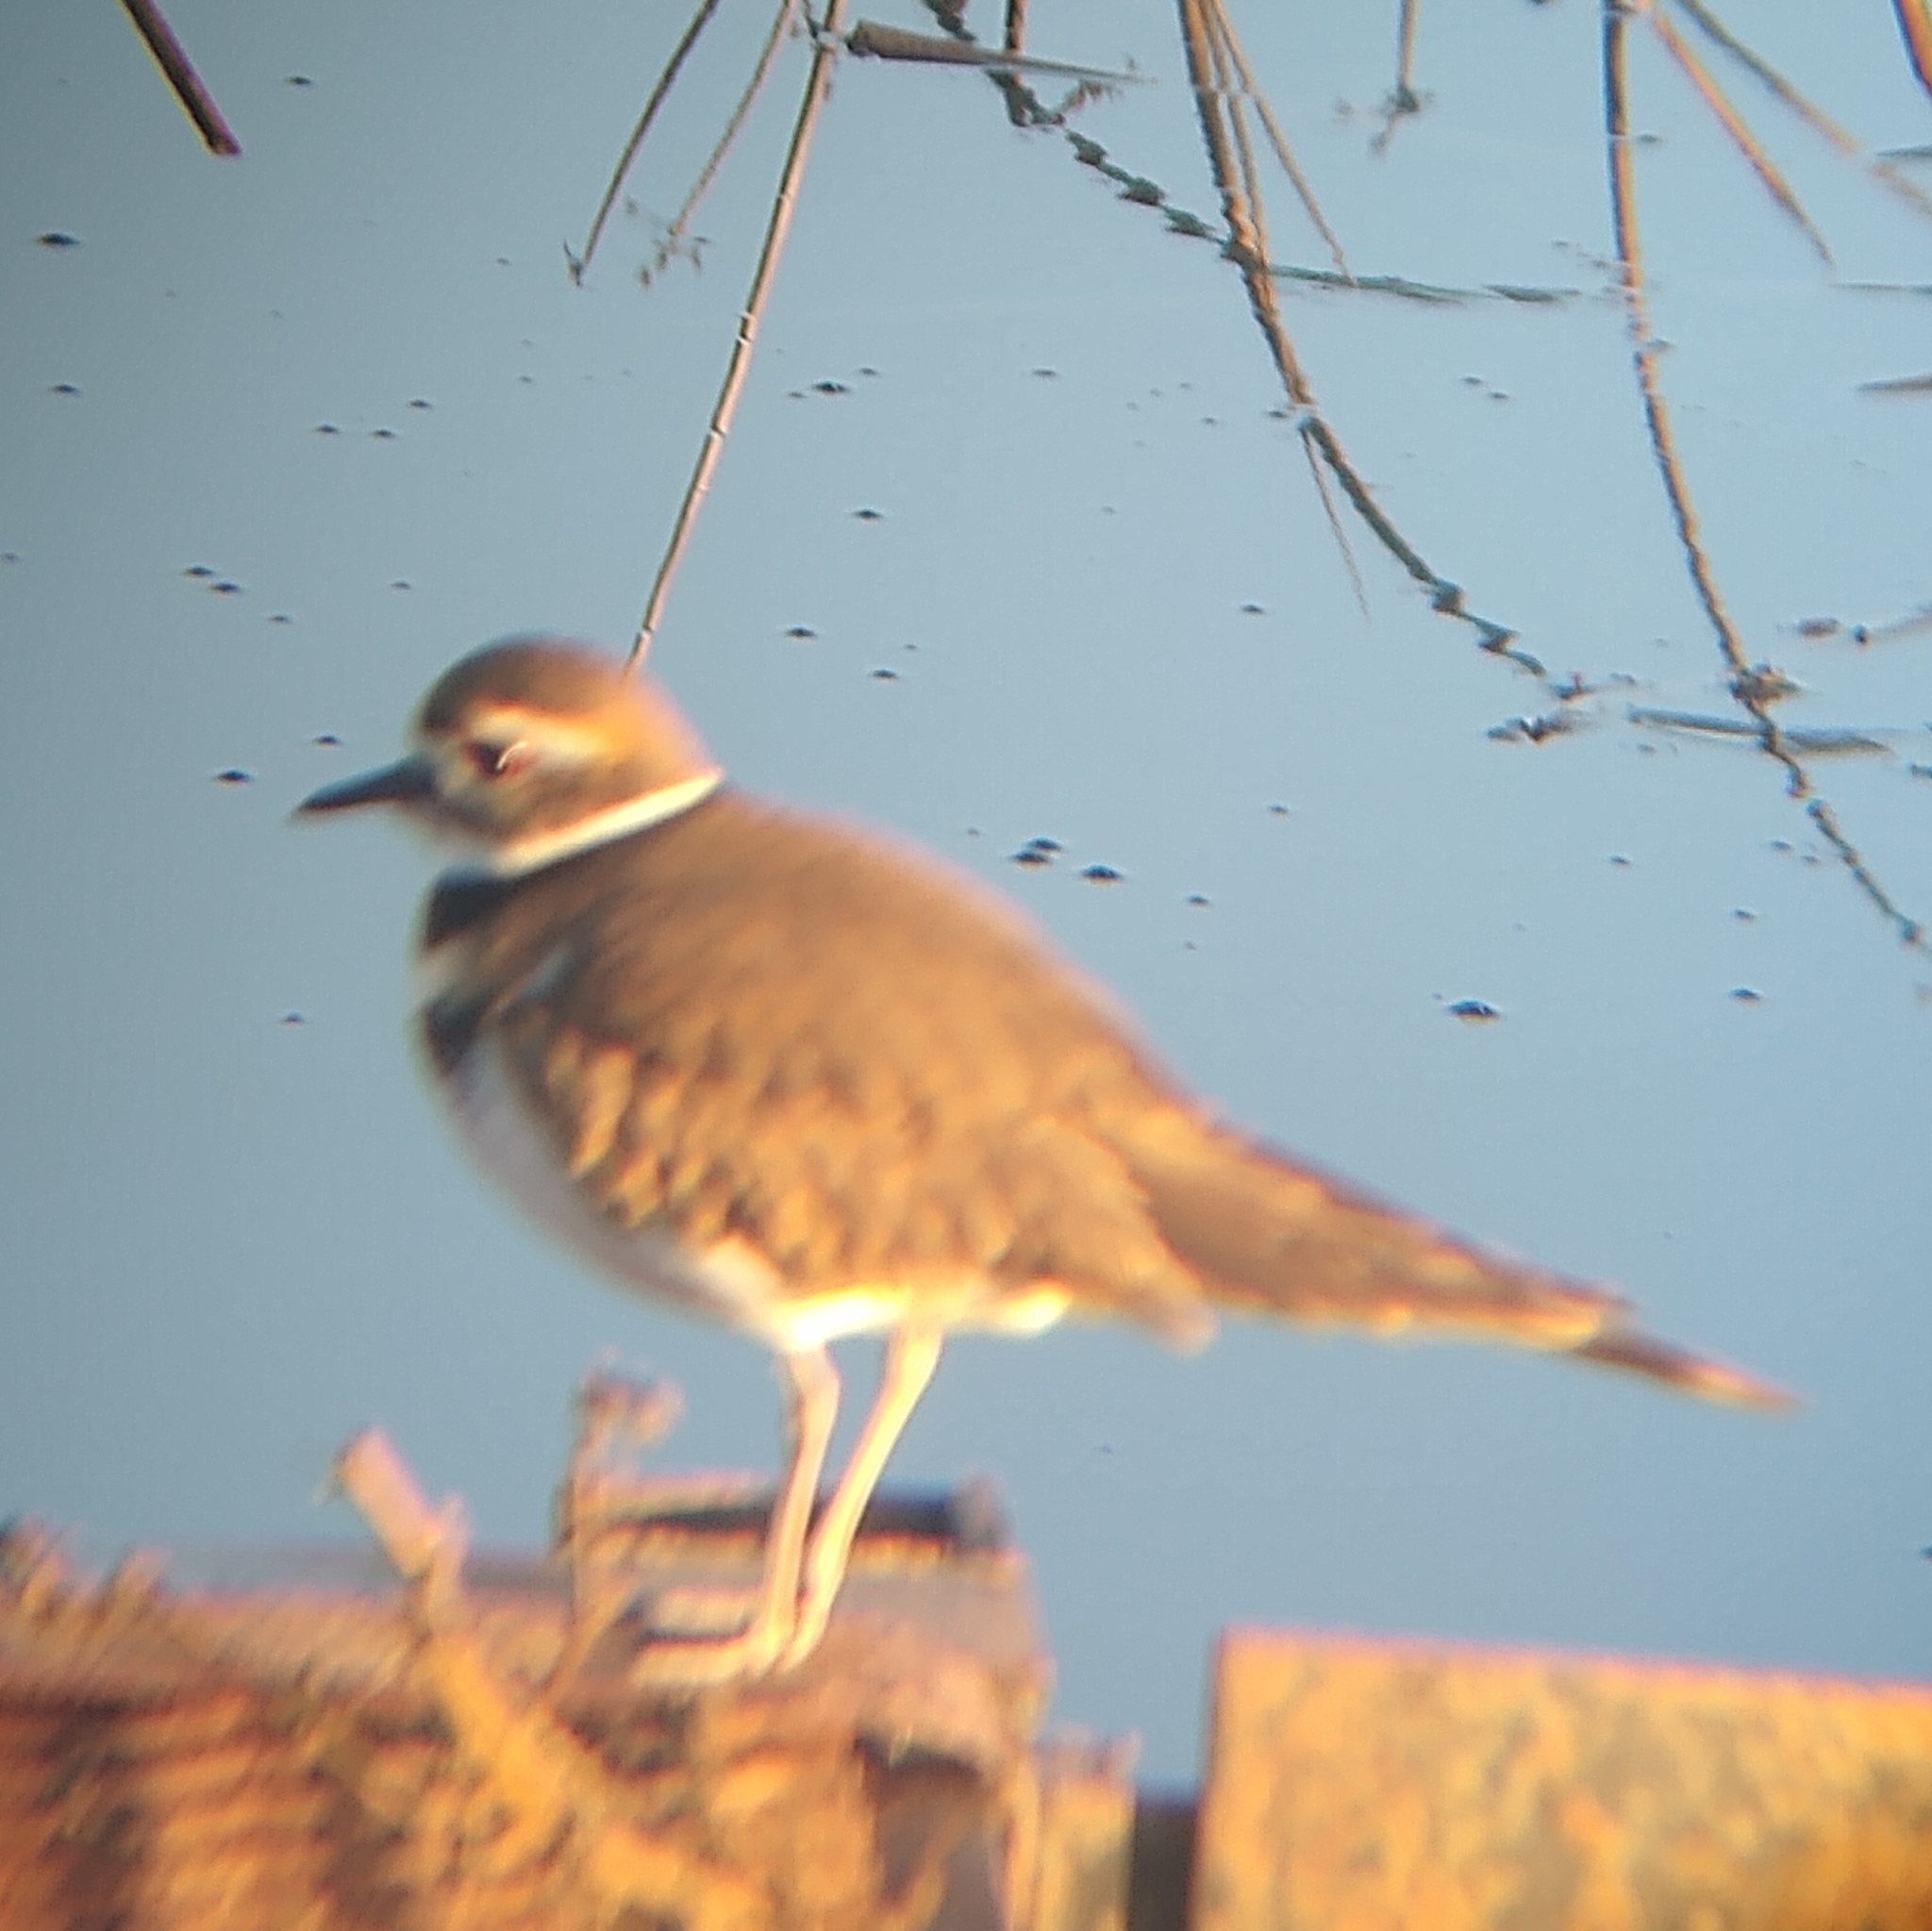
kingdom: Animalia
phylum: Chordata
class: Aves
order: Charadriiformes
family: Charadriidae
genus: Charadrius
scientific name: Charadrius vociferus
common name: Killdeer
